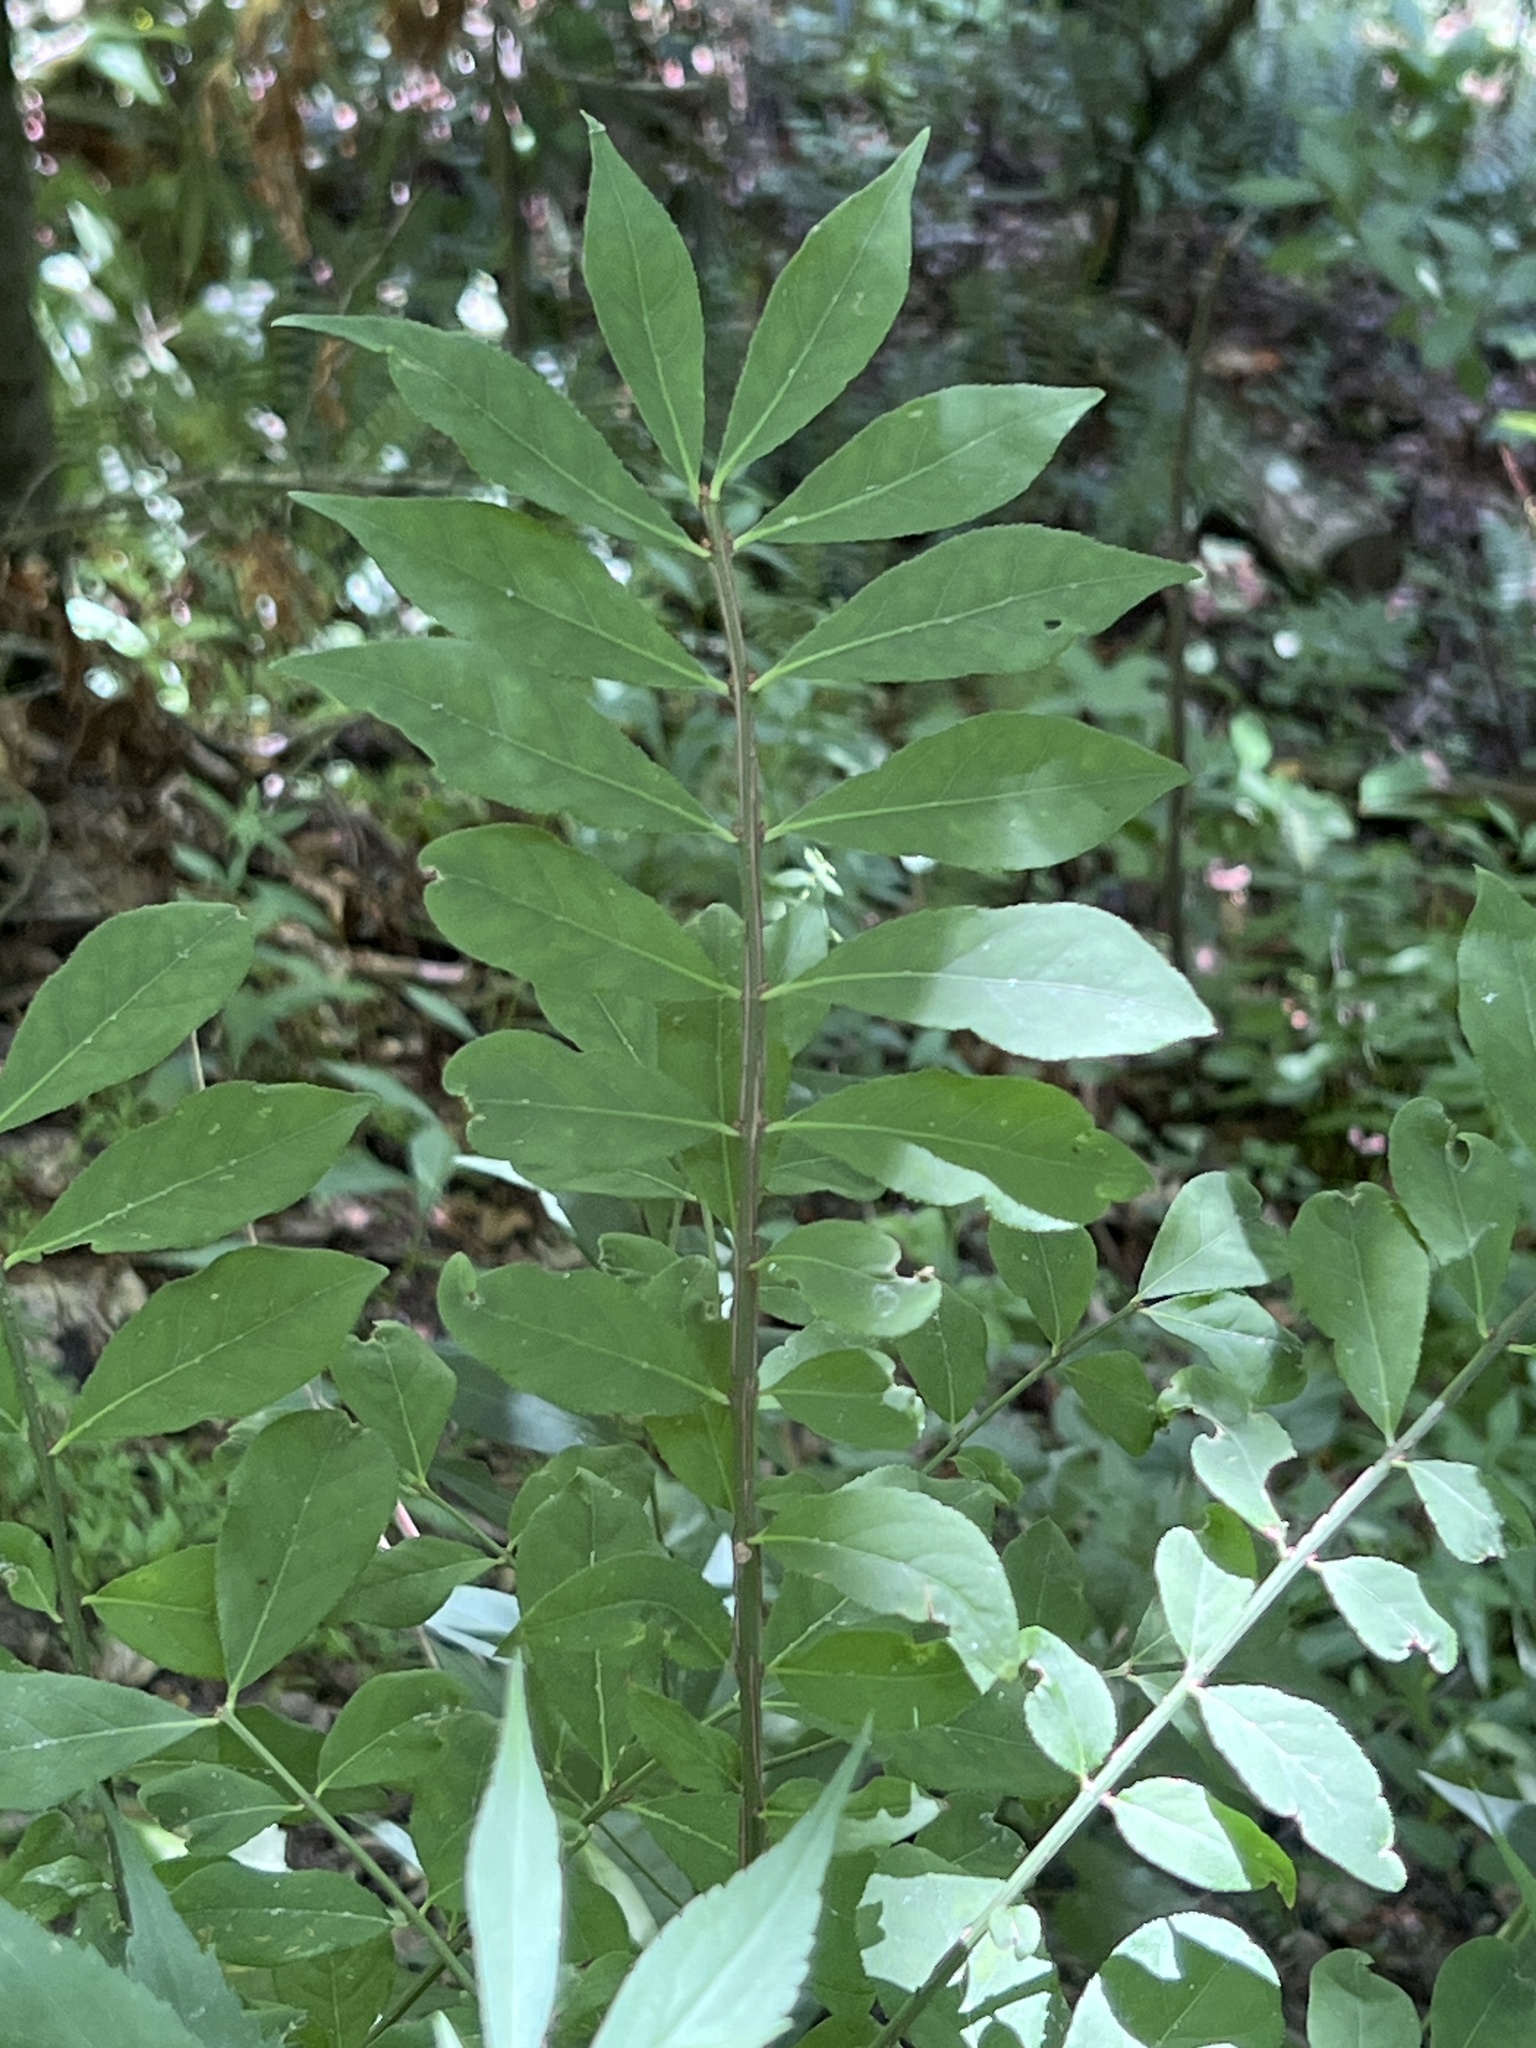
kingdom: Plantae
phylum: Tracheophyta
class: Magnoliopsida
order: Celastrales
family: Celastraceae
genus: Euonymus
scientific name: Euonymus alatus
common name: Winged euonymus
